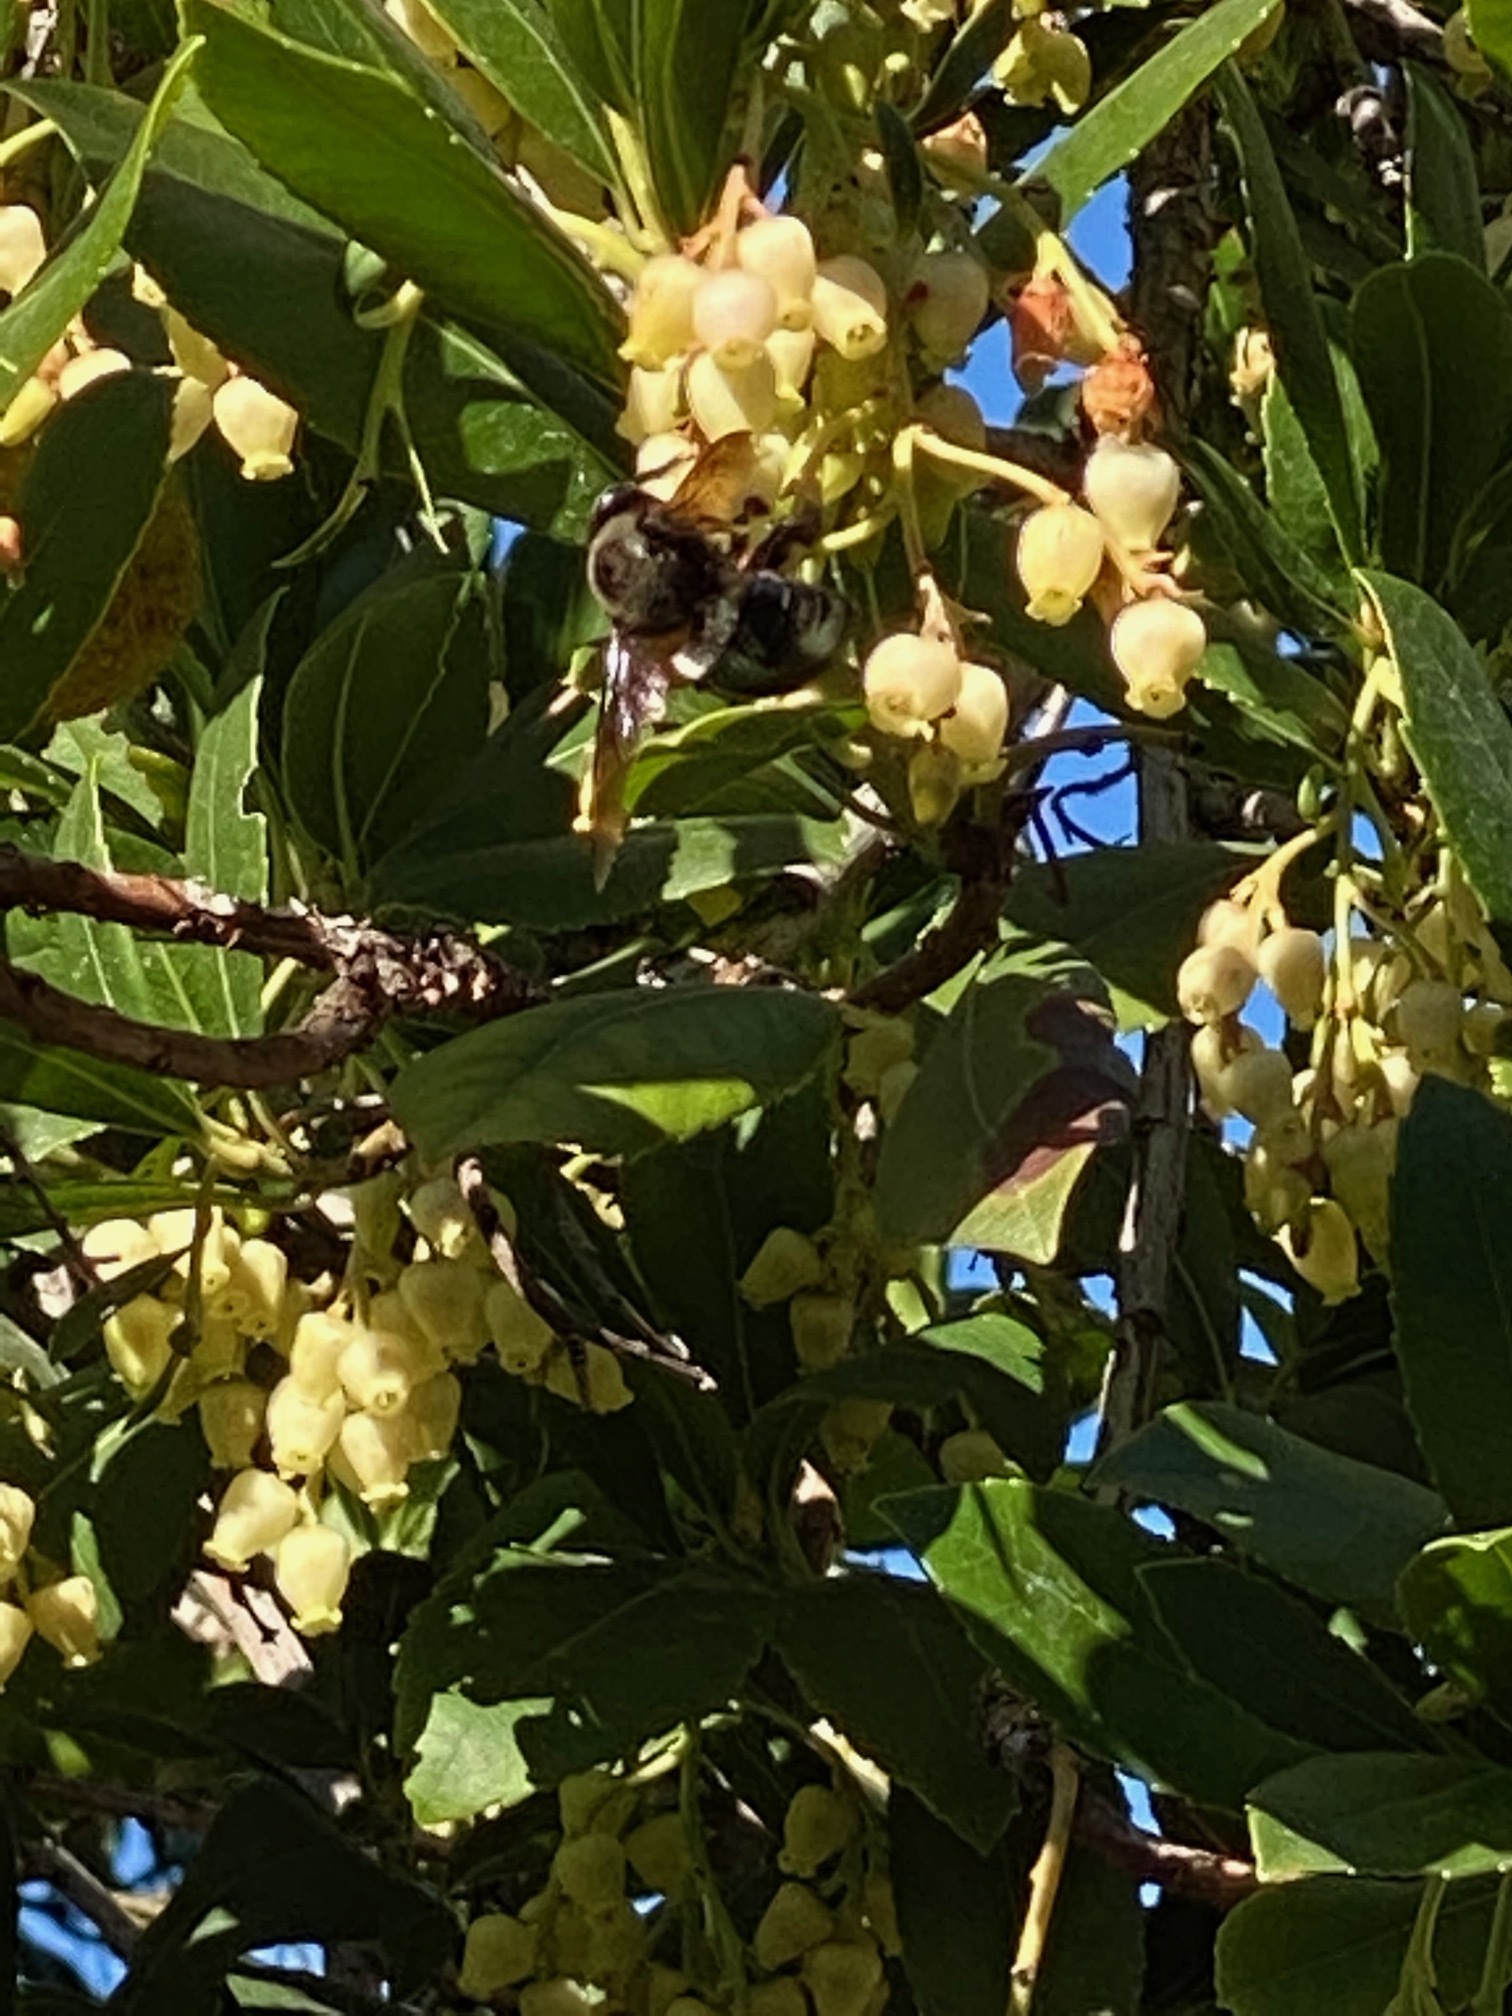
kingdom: Animalia
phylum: Arthropoda
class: Insecta
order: Hymenoptera
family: Apidae
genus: Xylocopa
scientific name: Xylocopa californica
